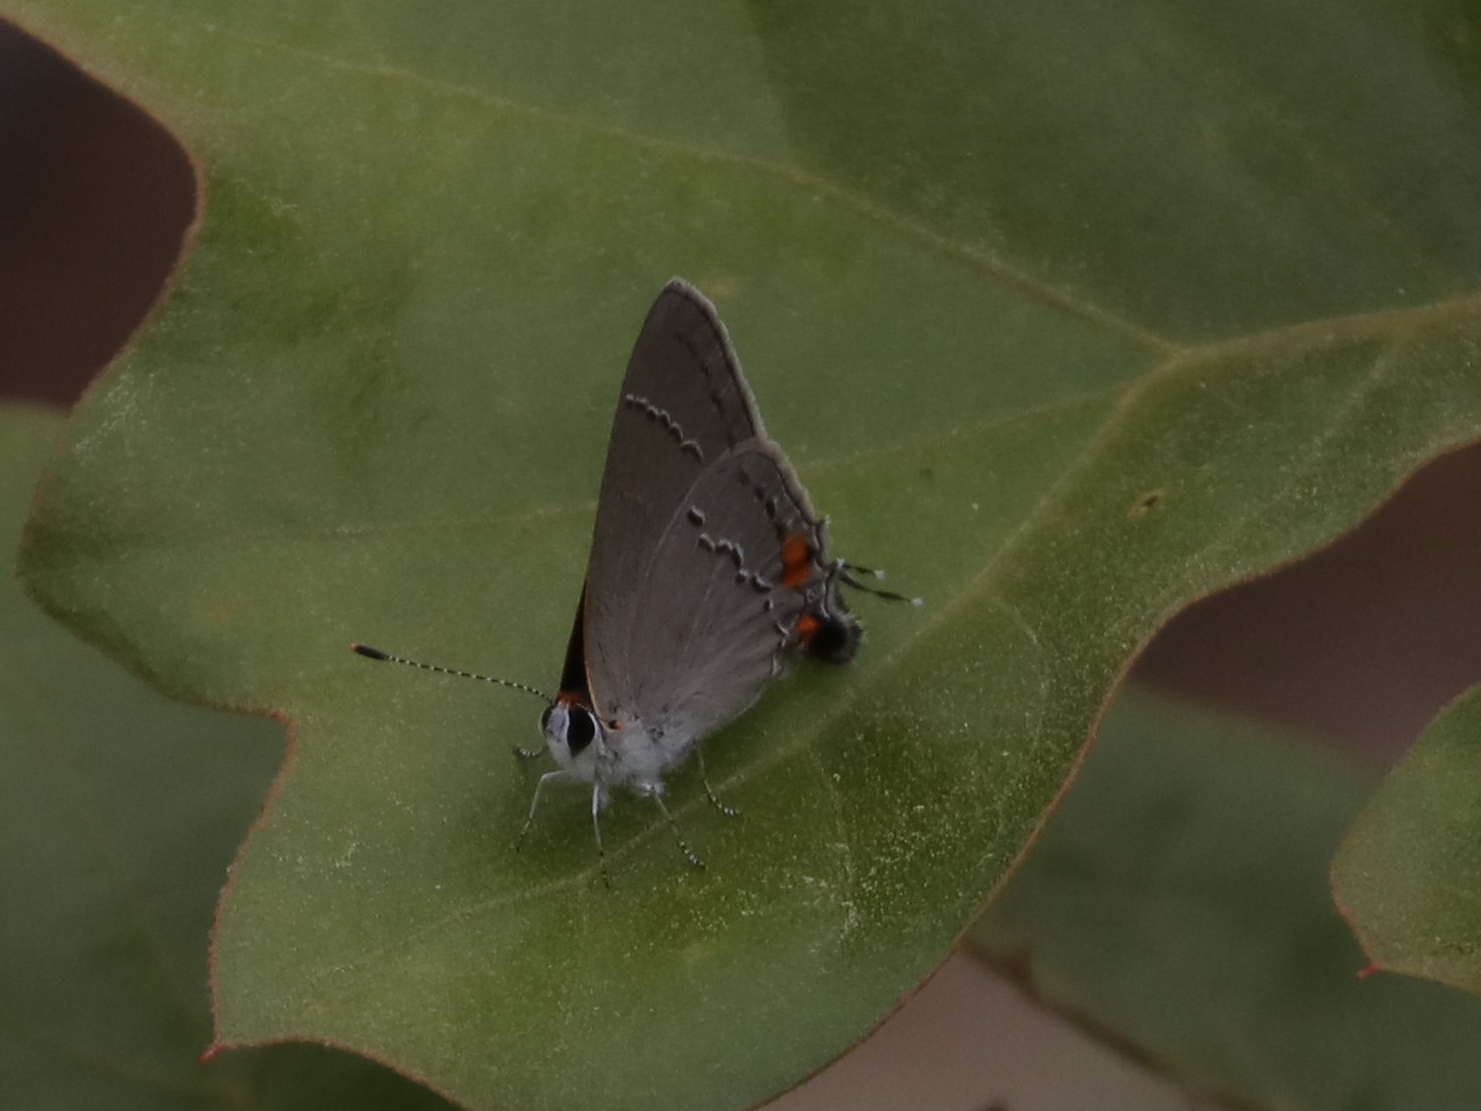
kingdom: Animalia
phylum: Arthropoda
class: Insecta
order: Lepidoptera
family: Lycaenidae
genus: Strymon
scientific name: Strymon melinus
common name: Gray hairstreak
